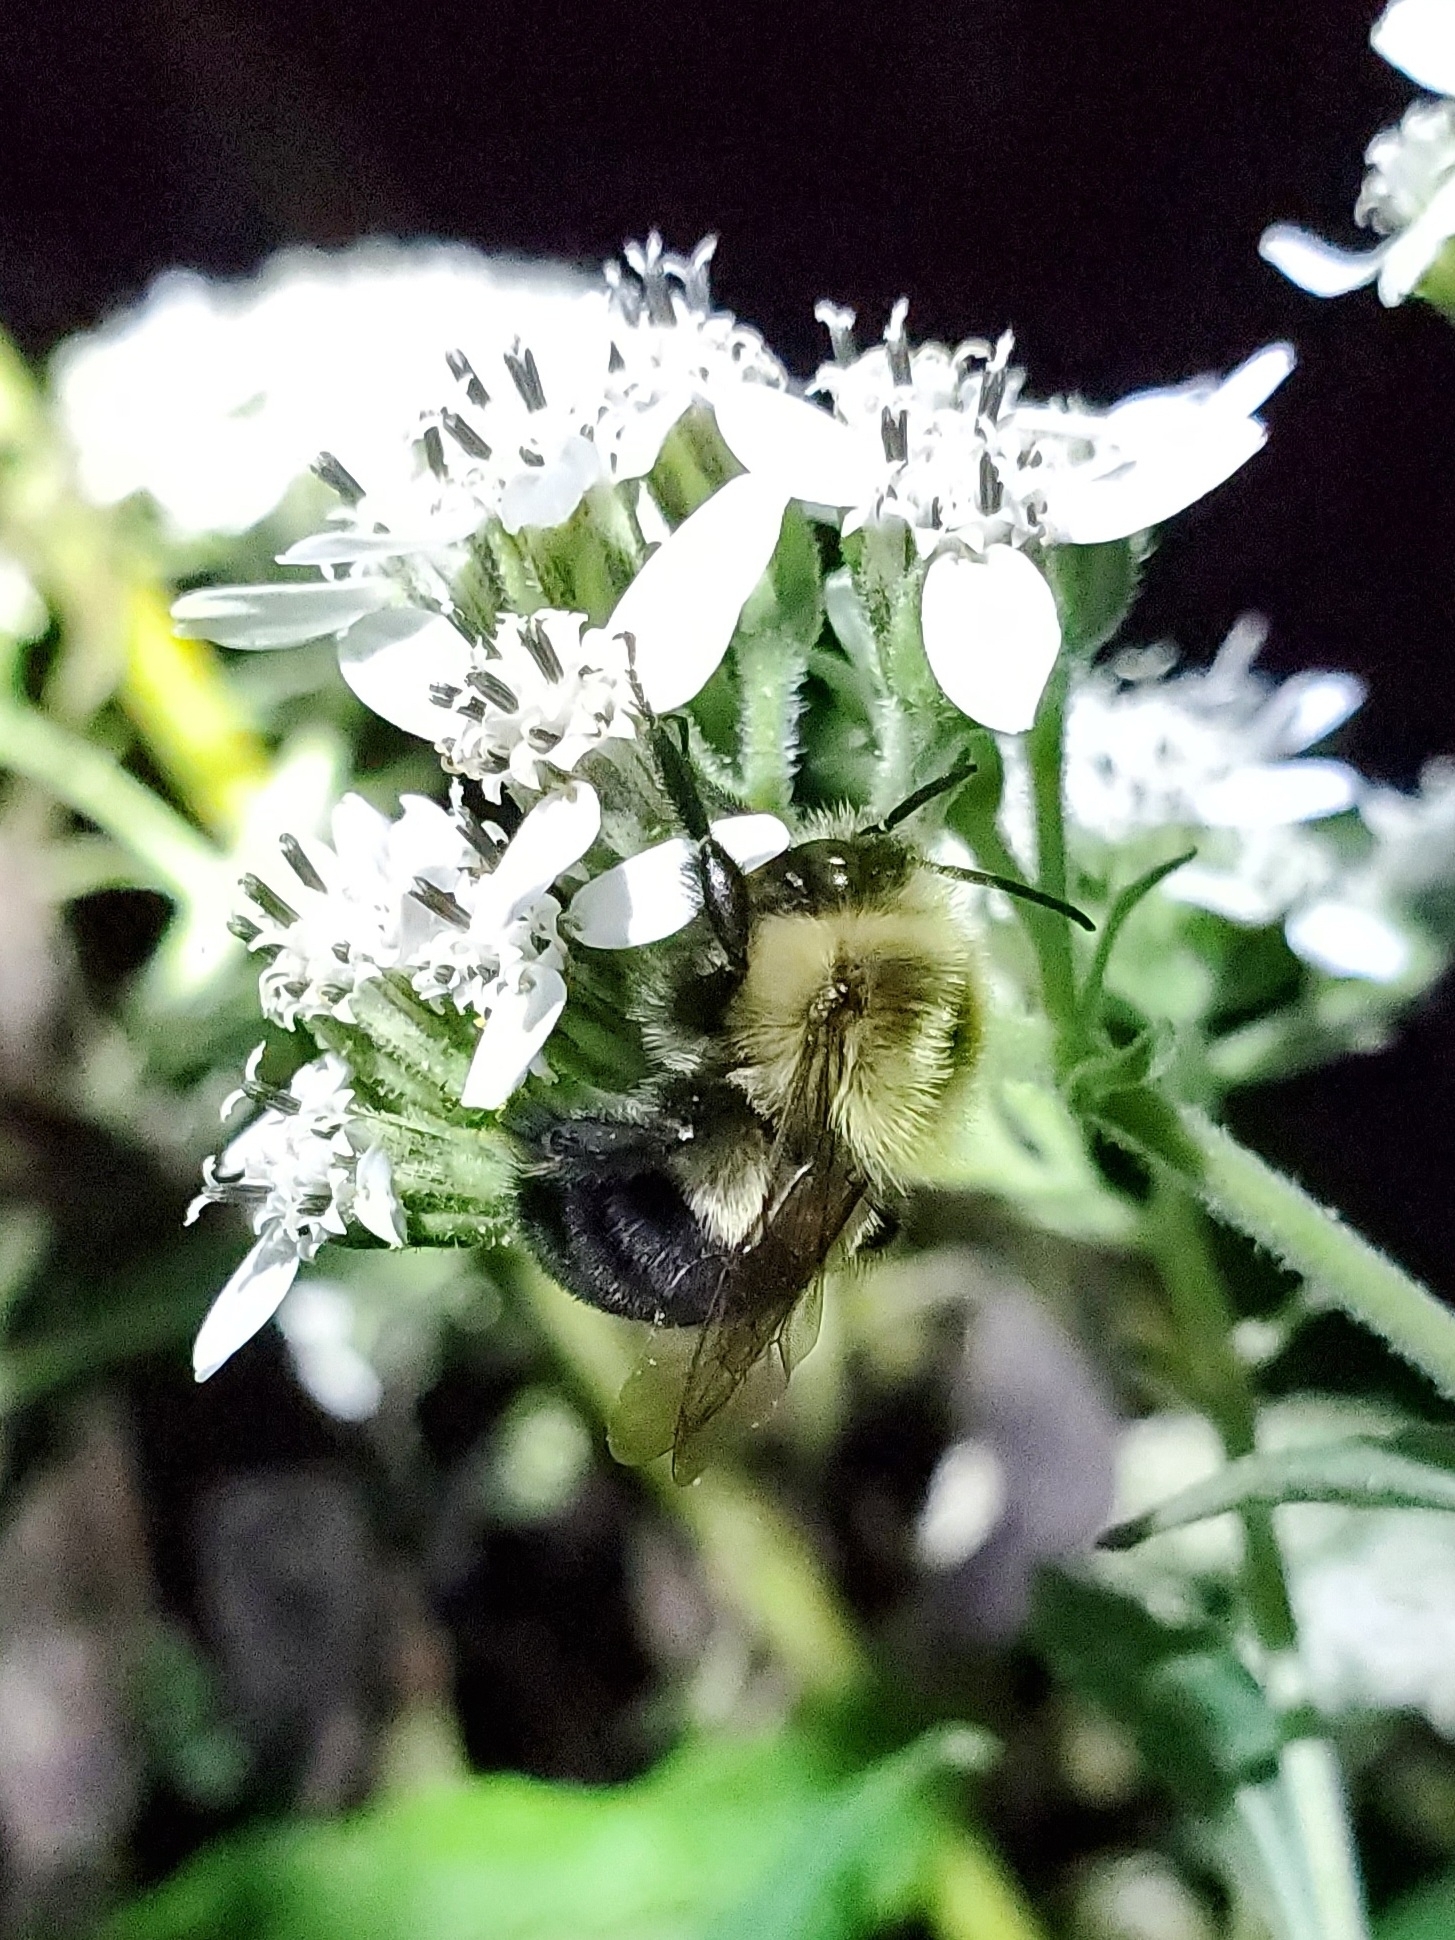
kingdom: Animalia
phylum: Arthropoda
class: Insecta
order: Hymenoptera
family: Apidae
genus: Bombus
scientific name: Bombus impatiens
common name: Common eastern bumble bee
